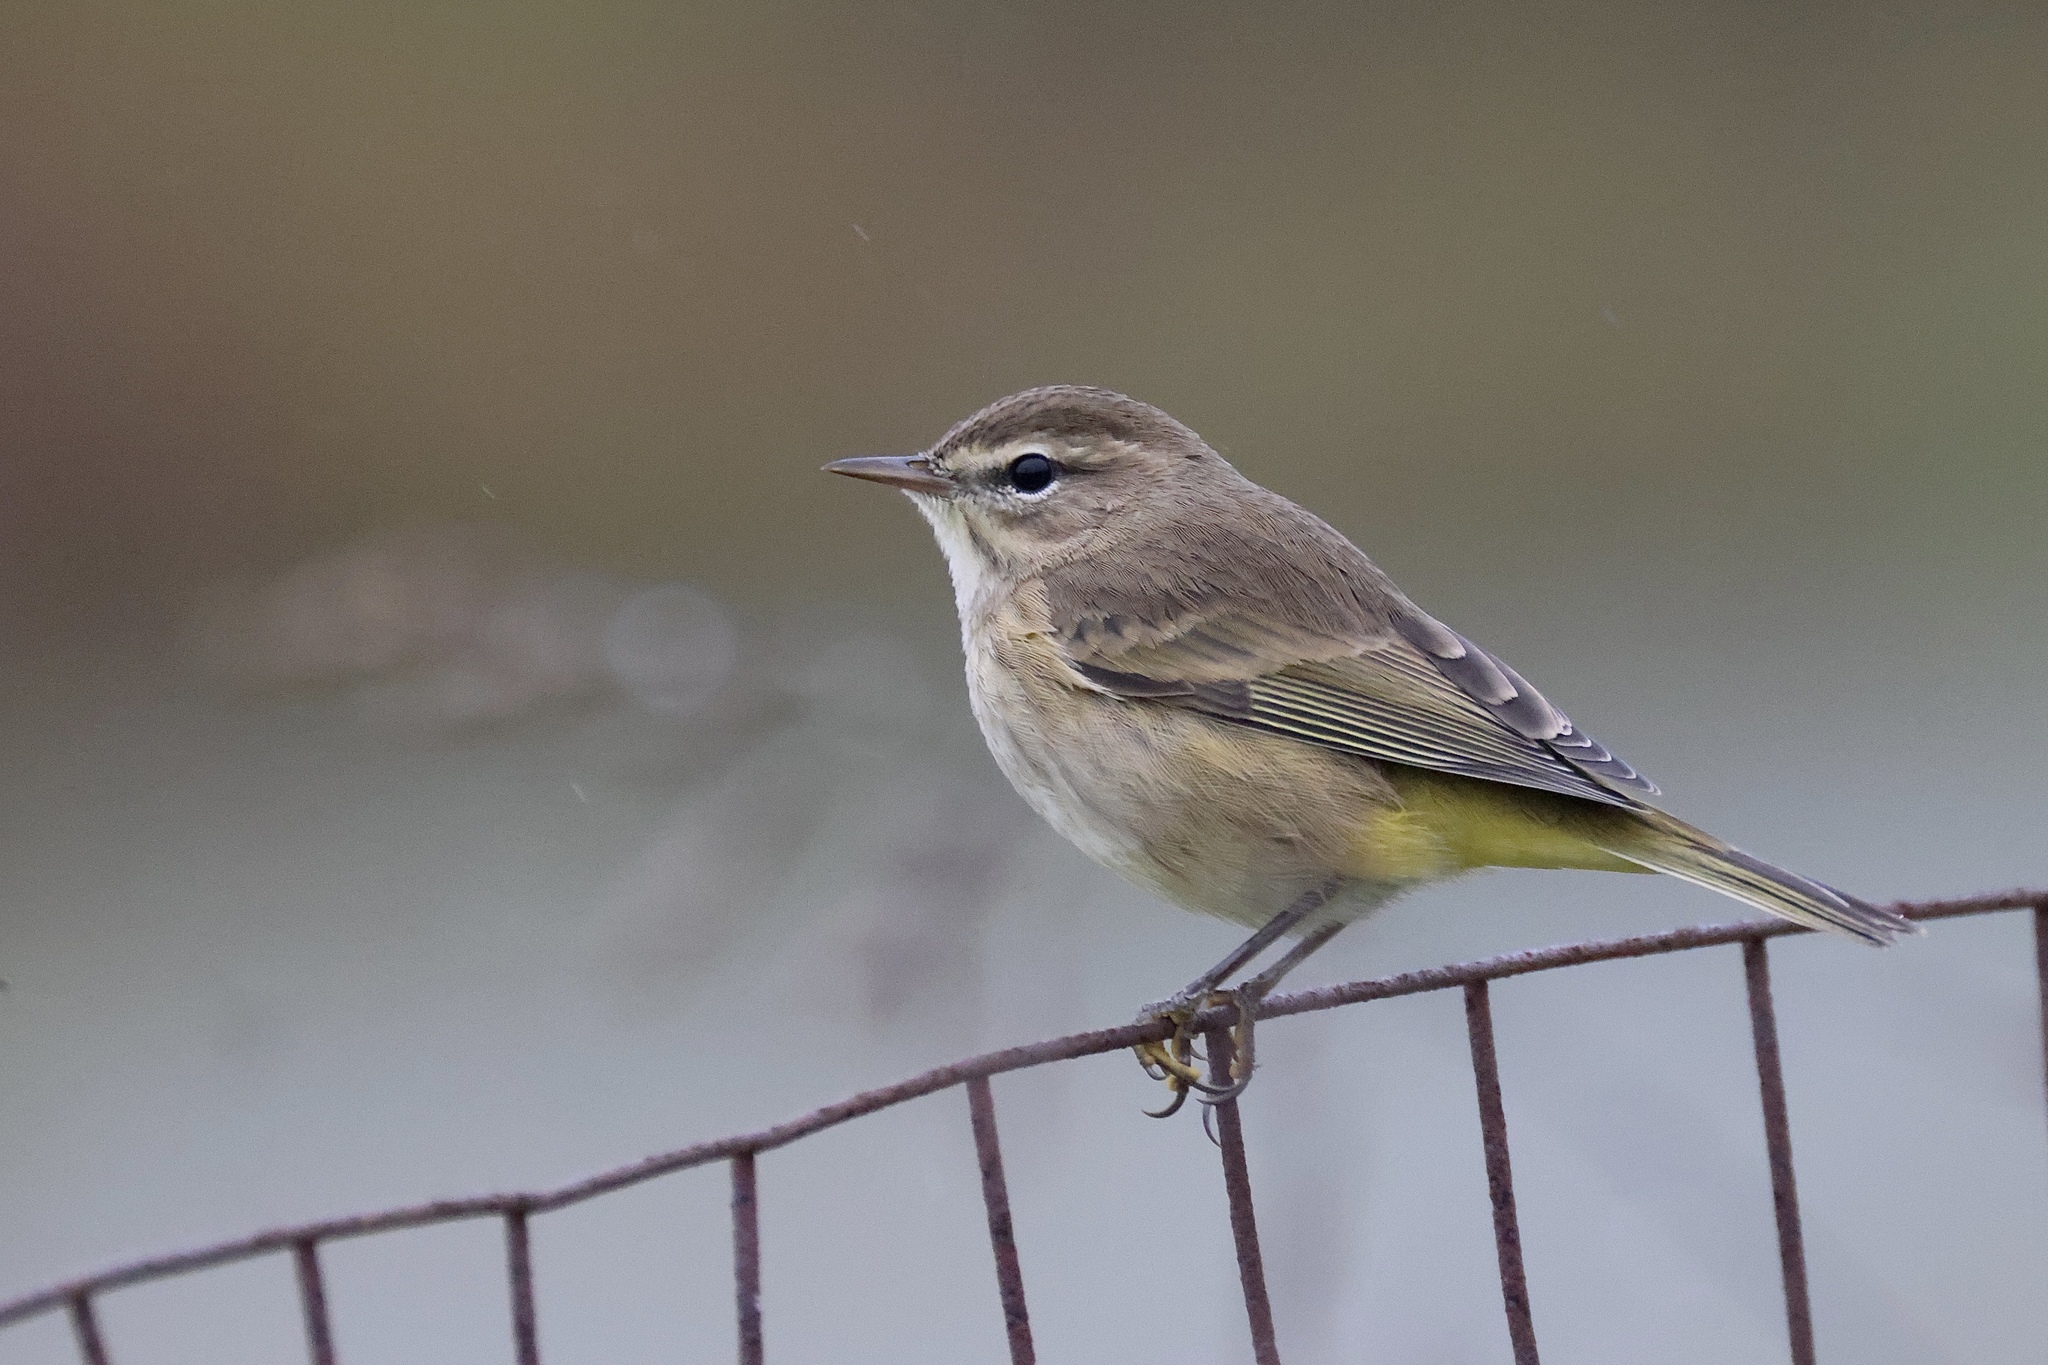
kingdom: Animalia
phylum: Chordata
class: Aves
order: Passeriformes
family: Parulidae
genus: Setophaga
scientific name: Setophaga palmarum
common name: Palm warbler
